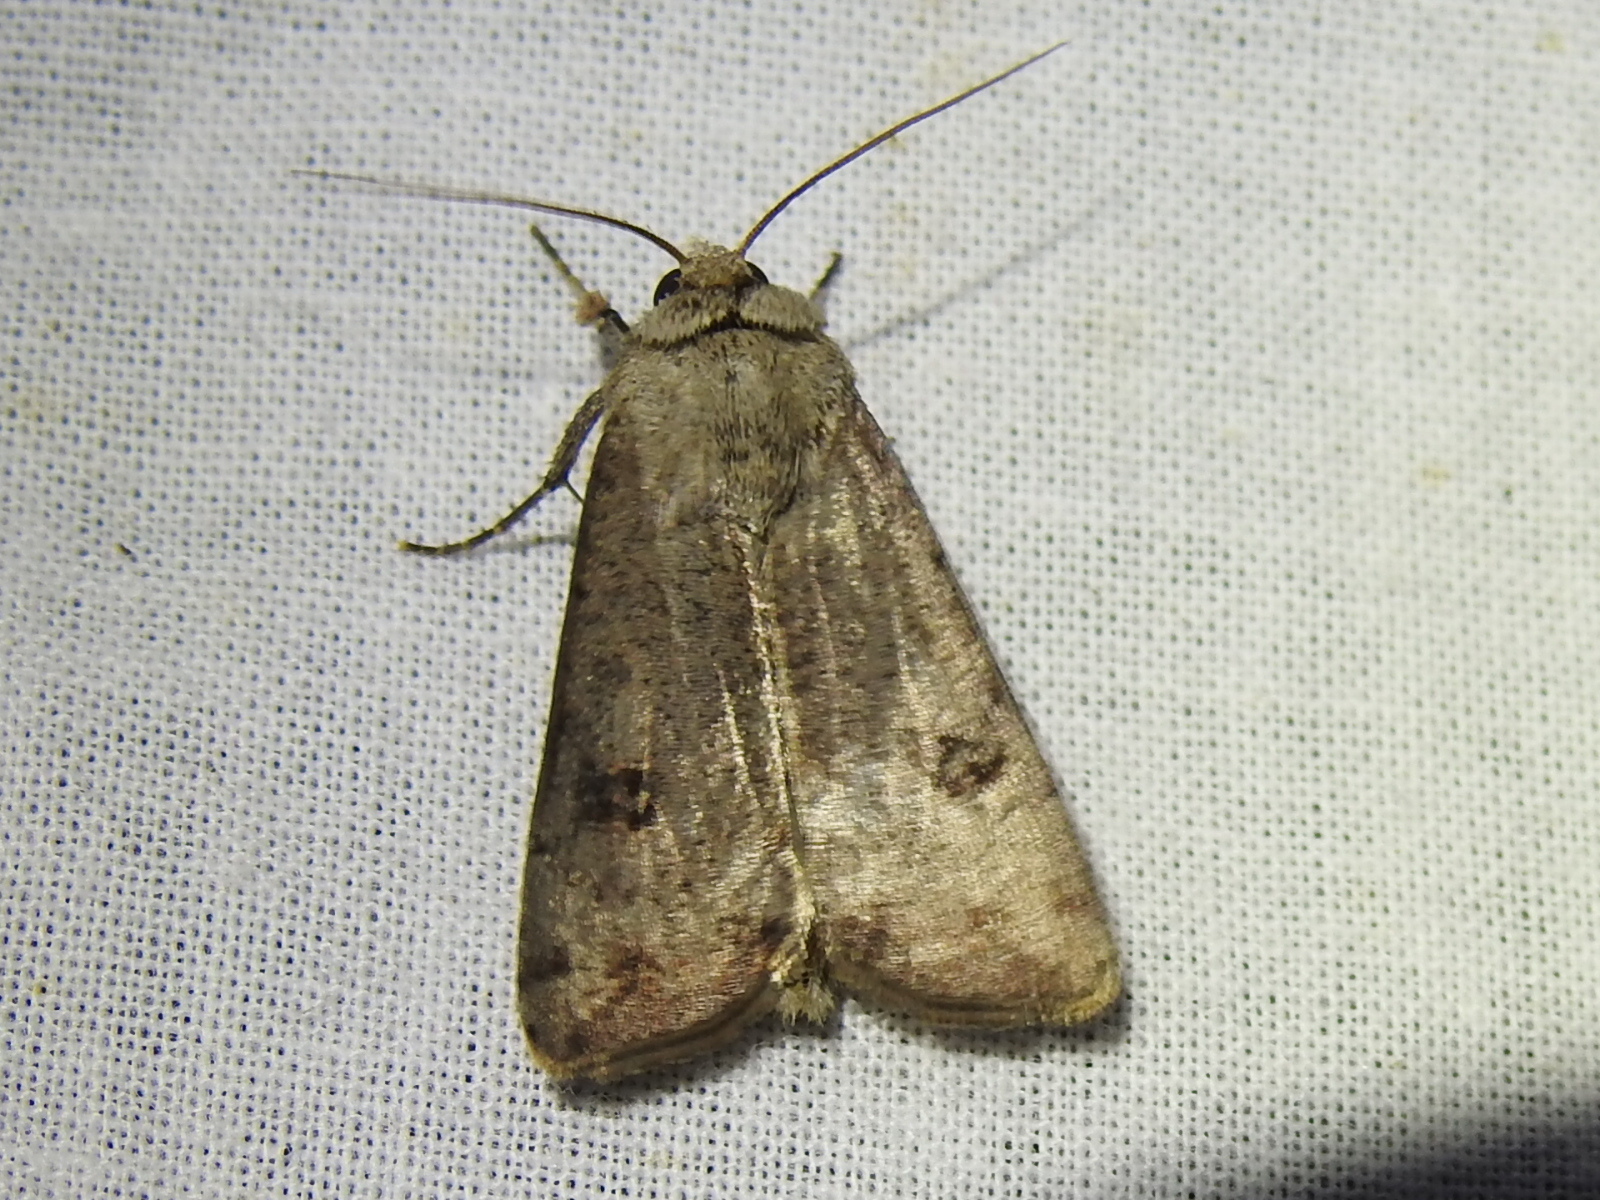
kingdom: Animalia
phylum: Arthropoda
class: Insecta
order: Lepidoptera
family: Noctuidae
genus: Anicla
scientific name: Anicla infecta
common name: Green cutworm
